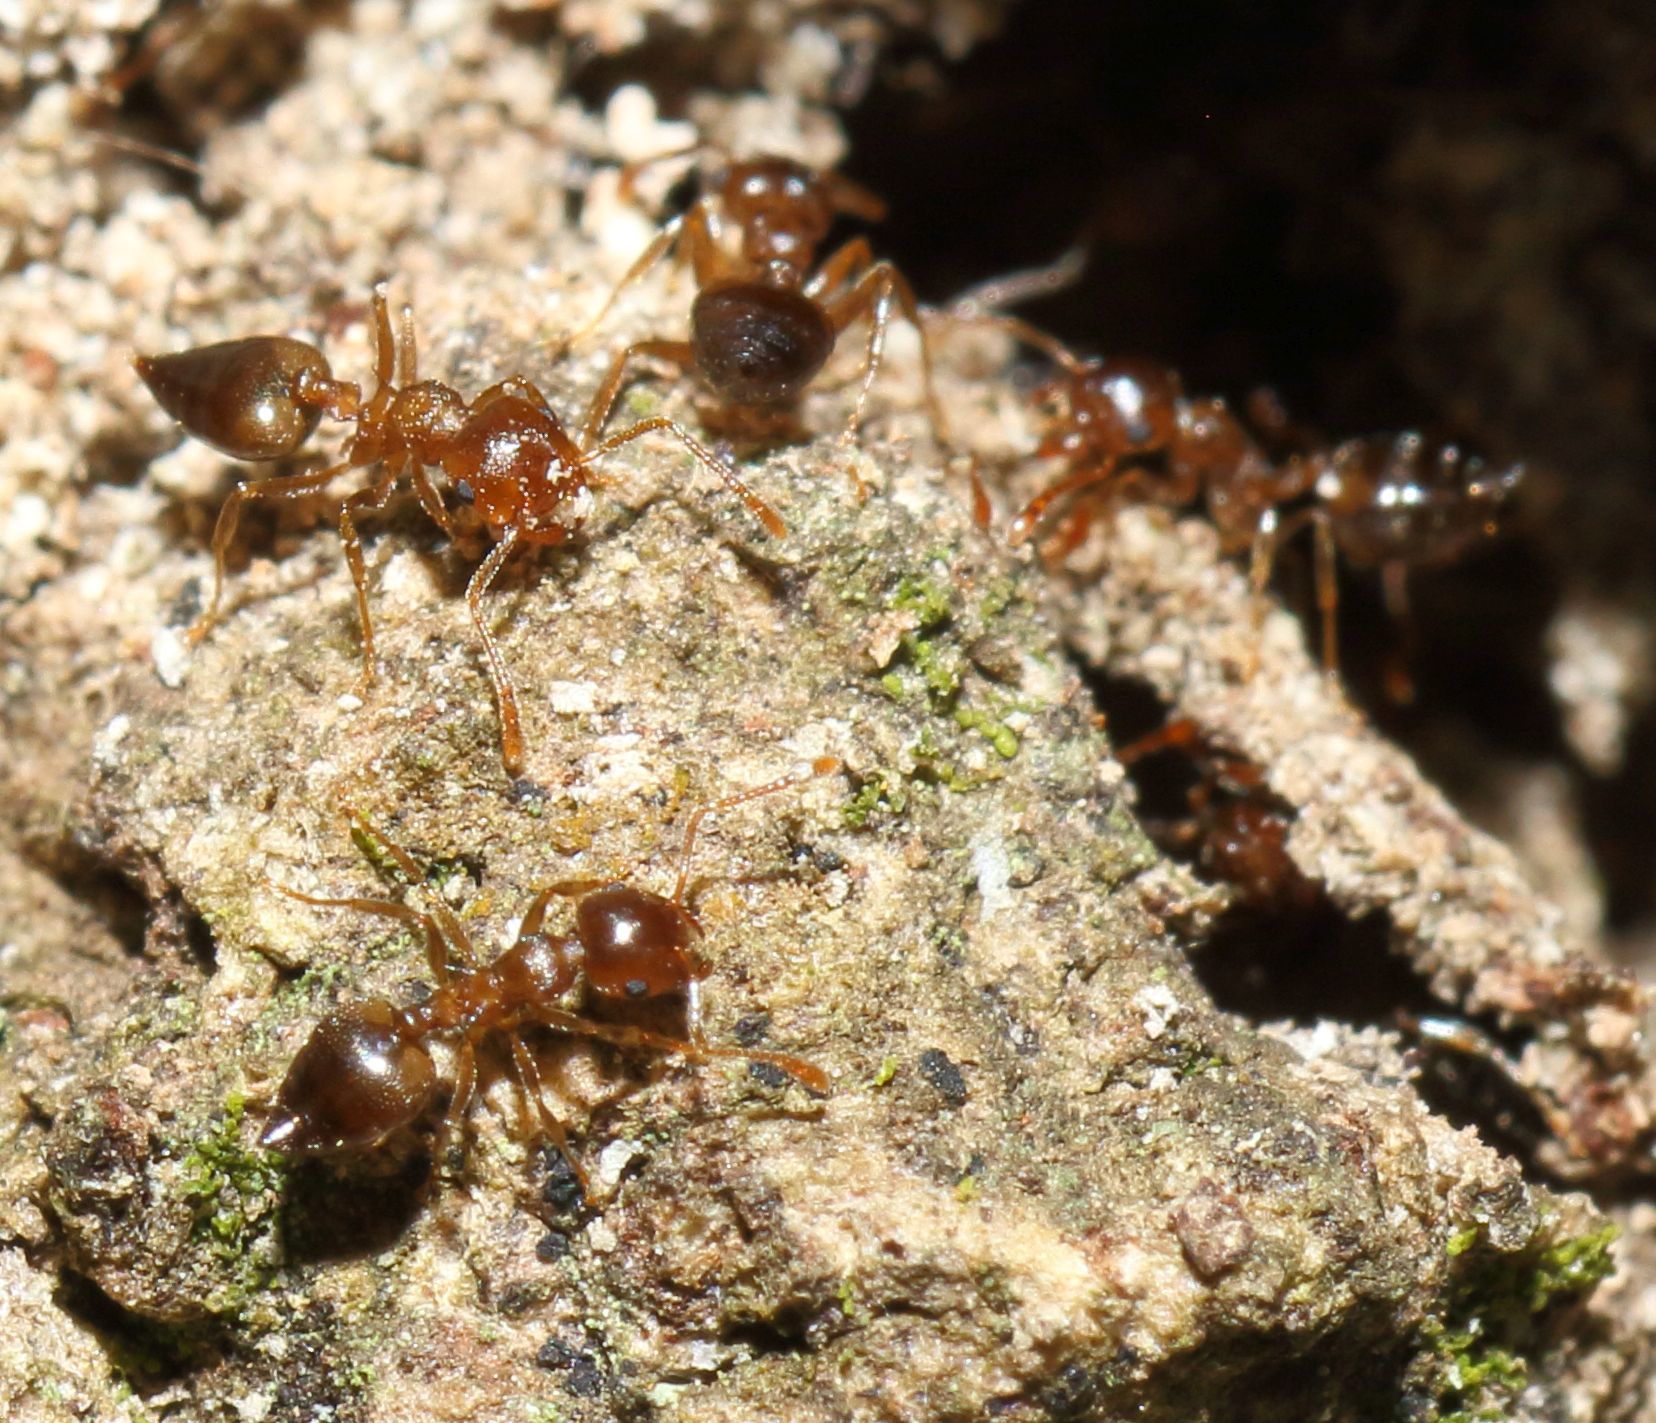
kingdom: Animalia
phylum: Arthropoda
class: Insecta
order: Hymenoptera
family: Formicidae
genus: Crematogaster
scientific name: Crematogaster natalensis
